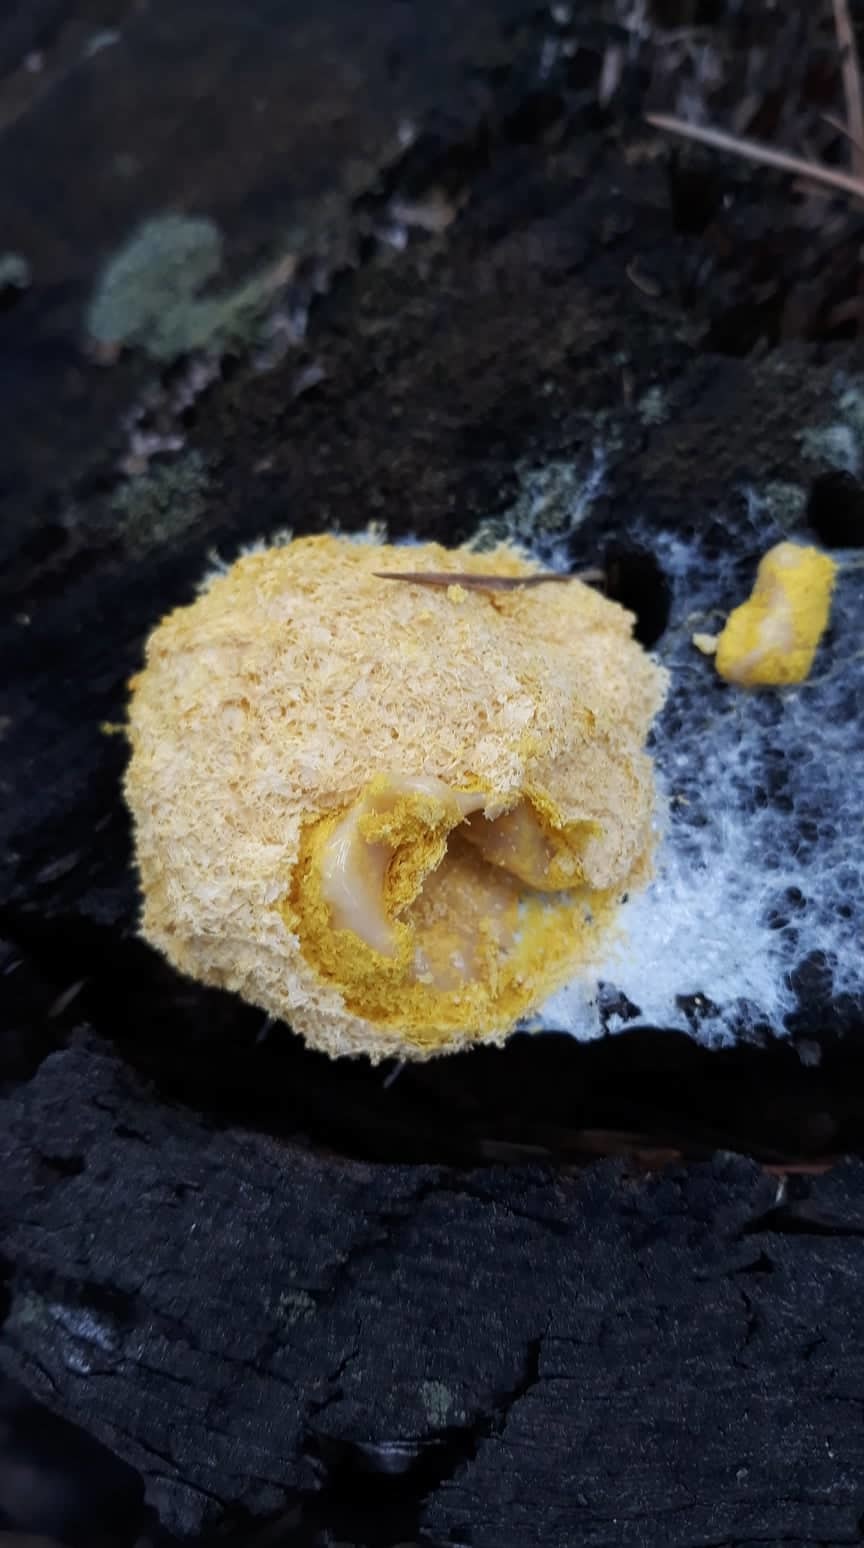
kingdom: Protozoa
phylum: Mycetozoa
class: Myxomycetes
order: Physarales
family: Physaraceae
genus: Fuligo
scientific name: Fuligo septica
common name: Dog vomit slime mold
